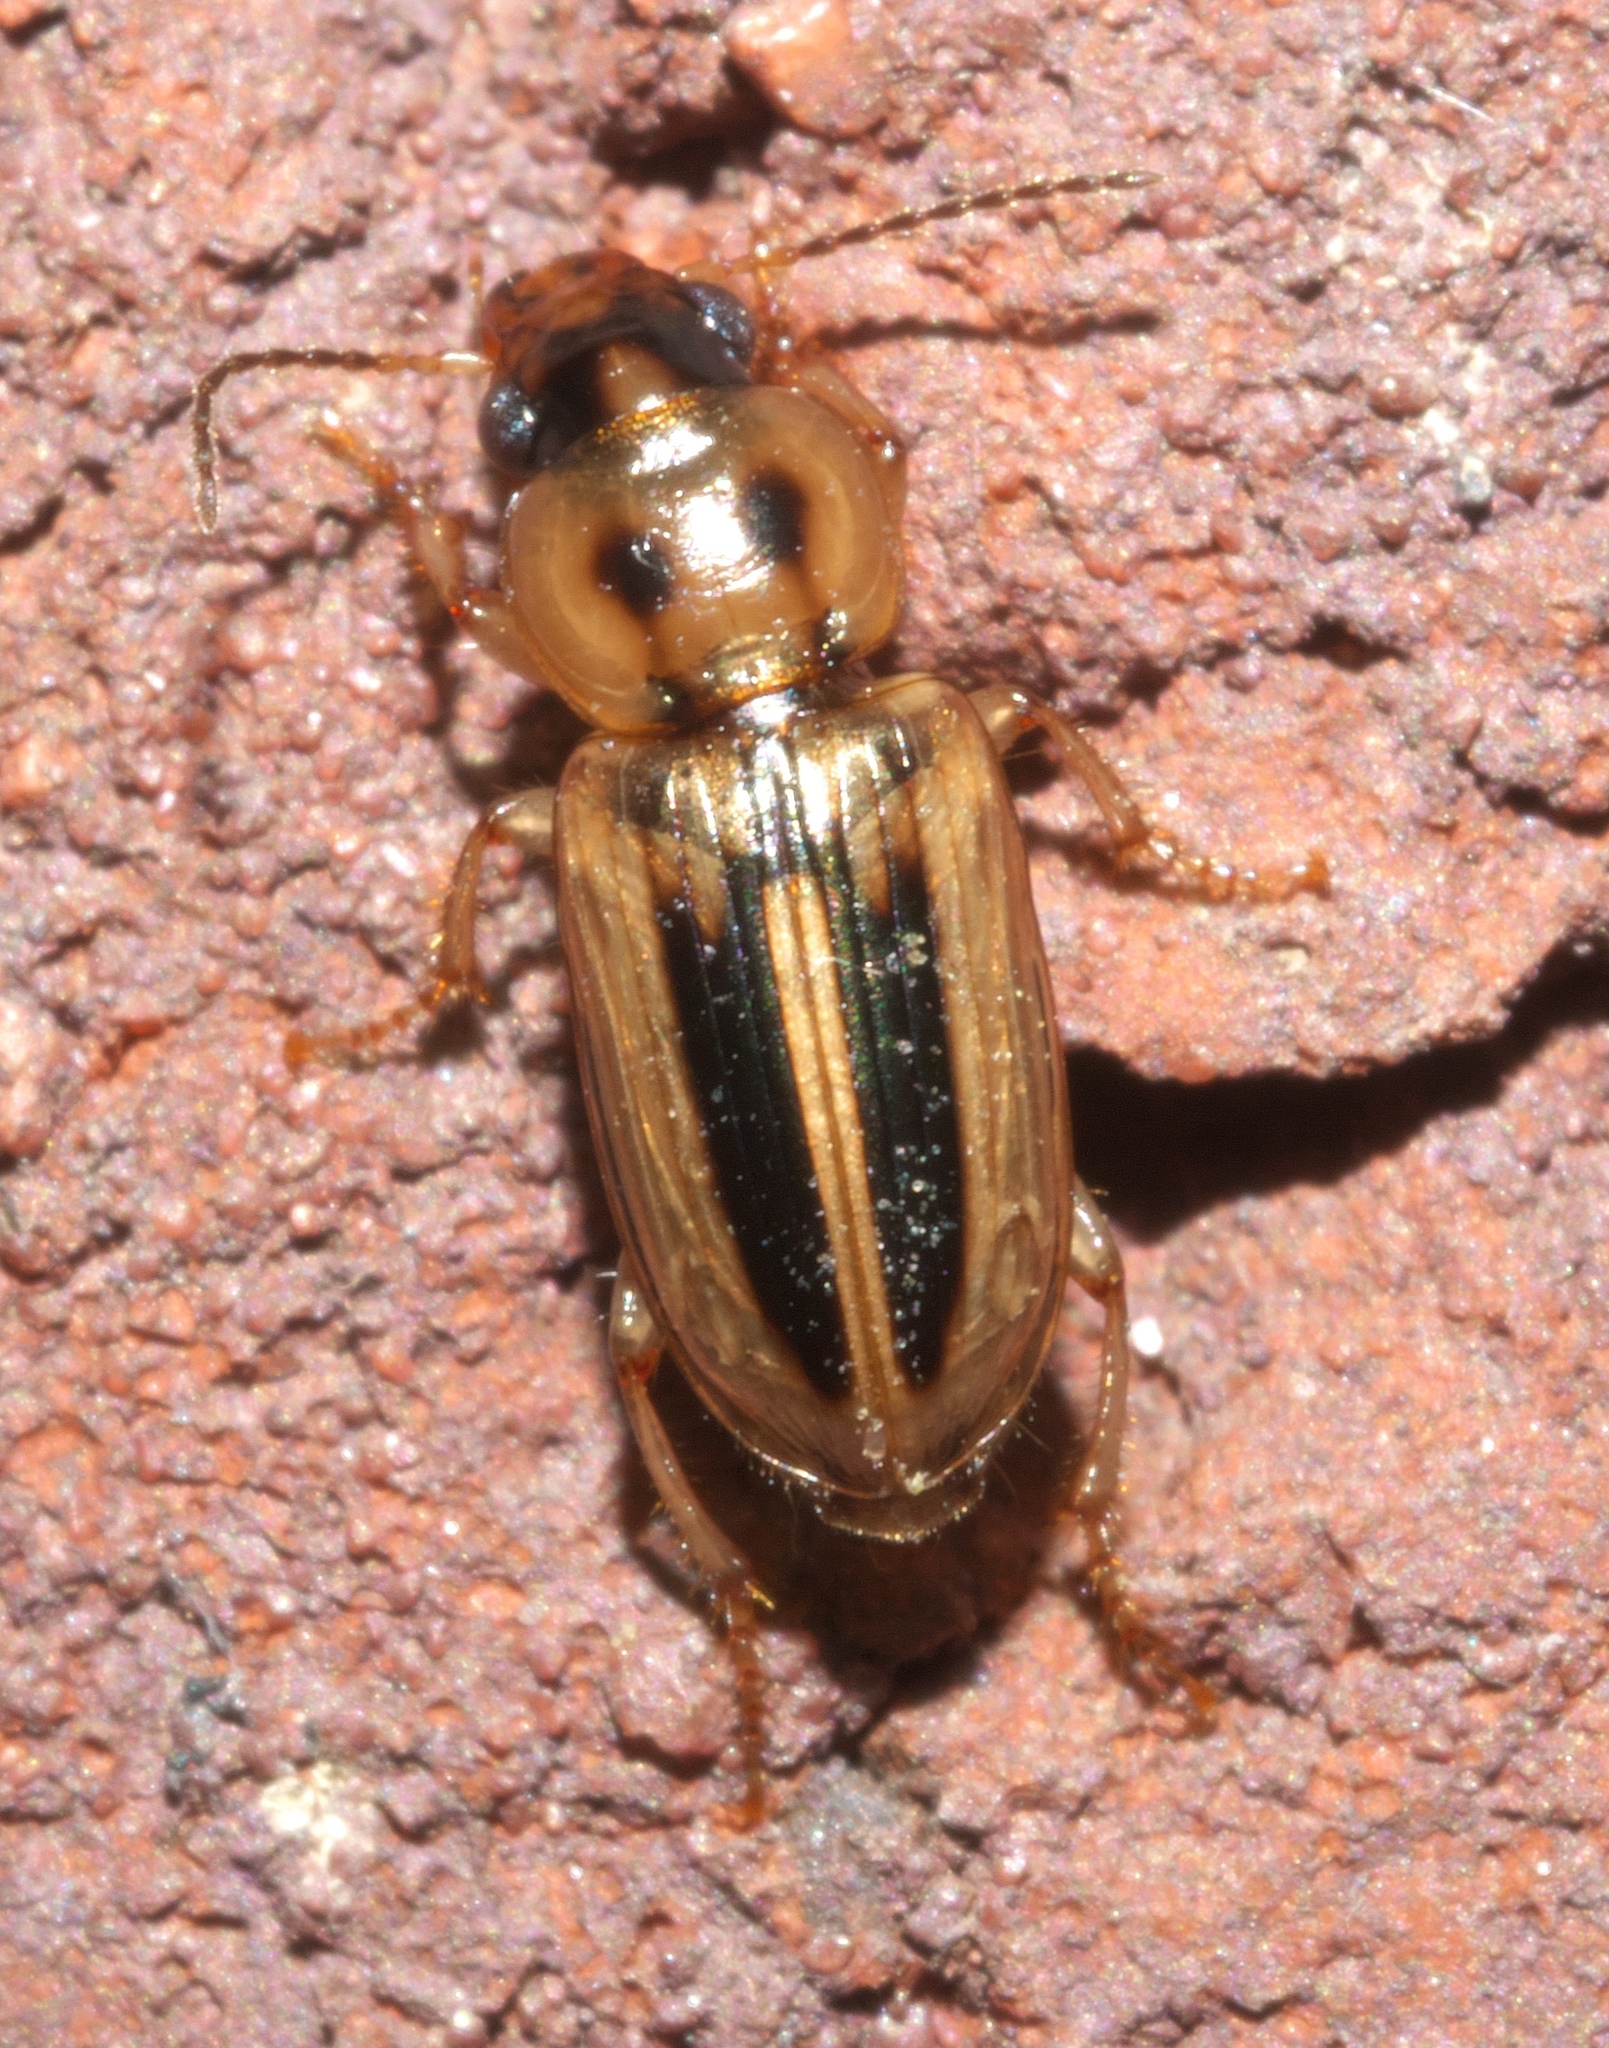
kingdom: Animalia
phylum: Arthropoda
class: Insecta
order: Coleoptera
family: Carabidae
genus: Stenolophus
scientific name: Stenolophus lineola
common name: Lined stenolophus
